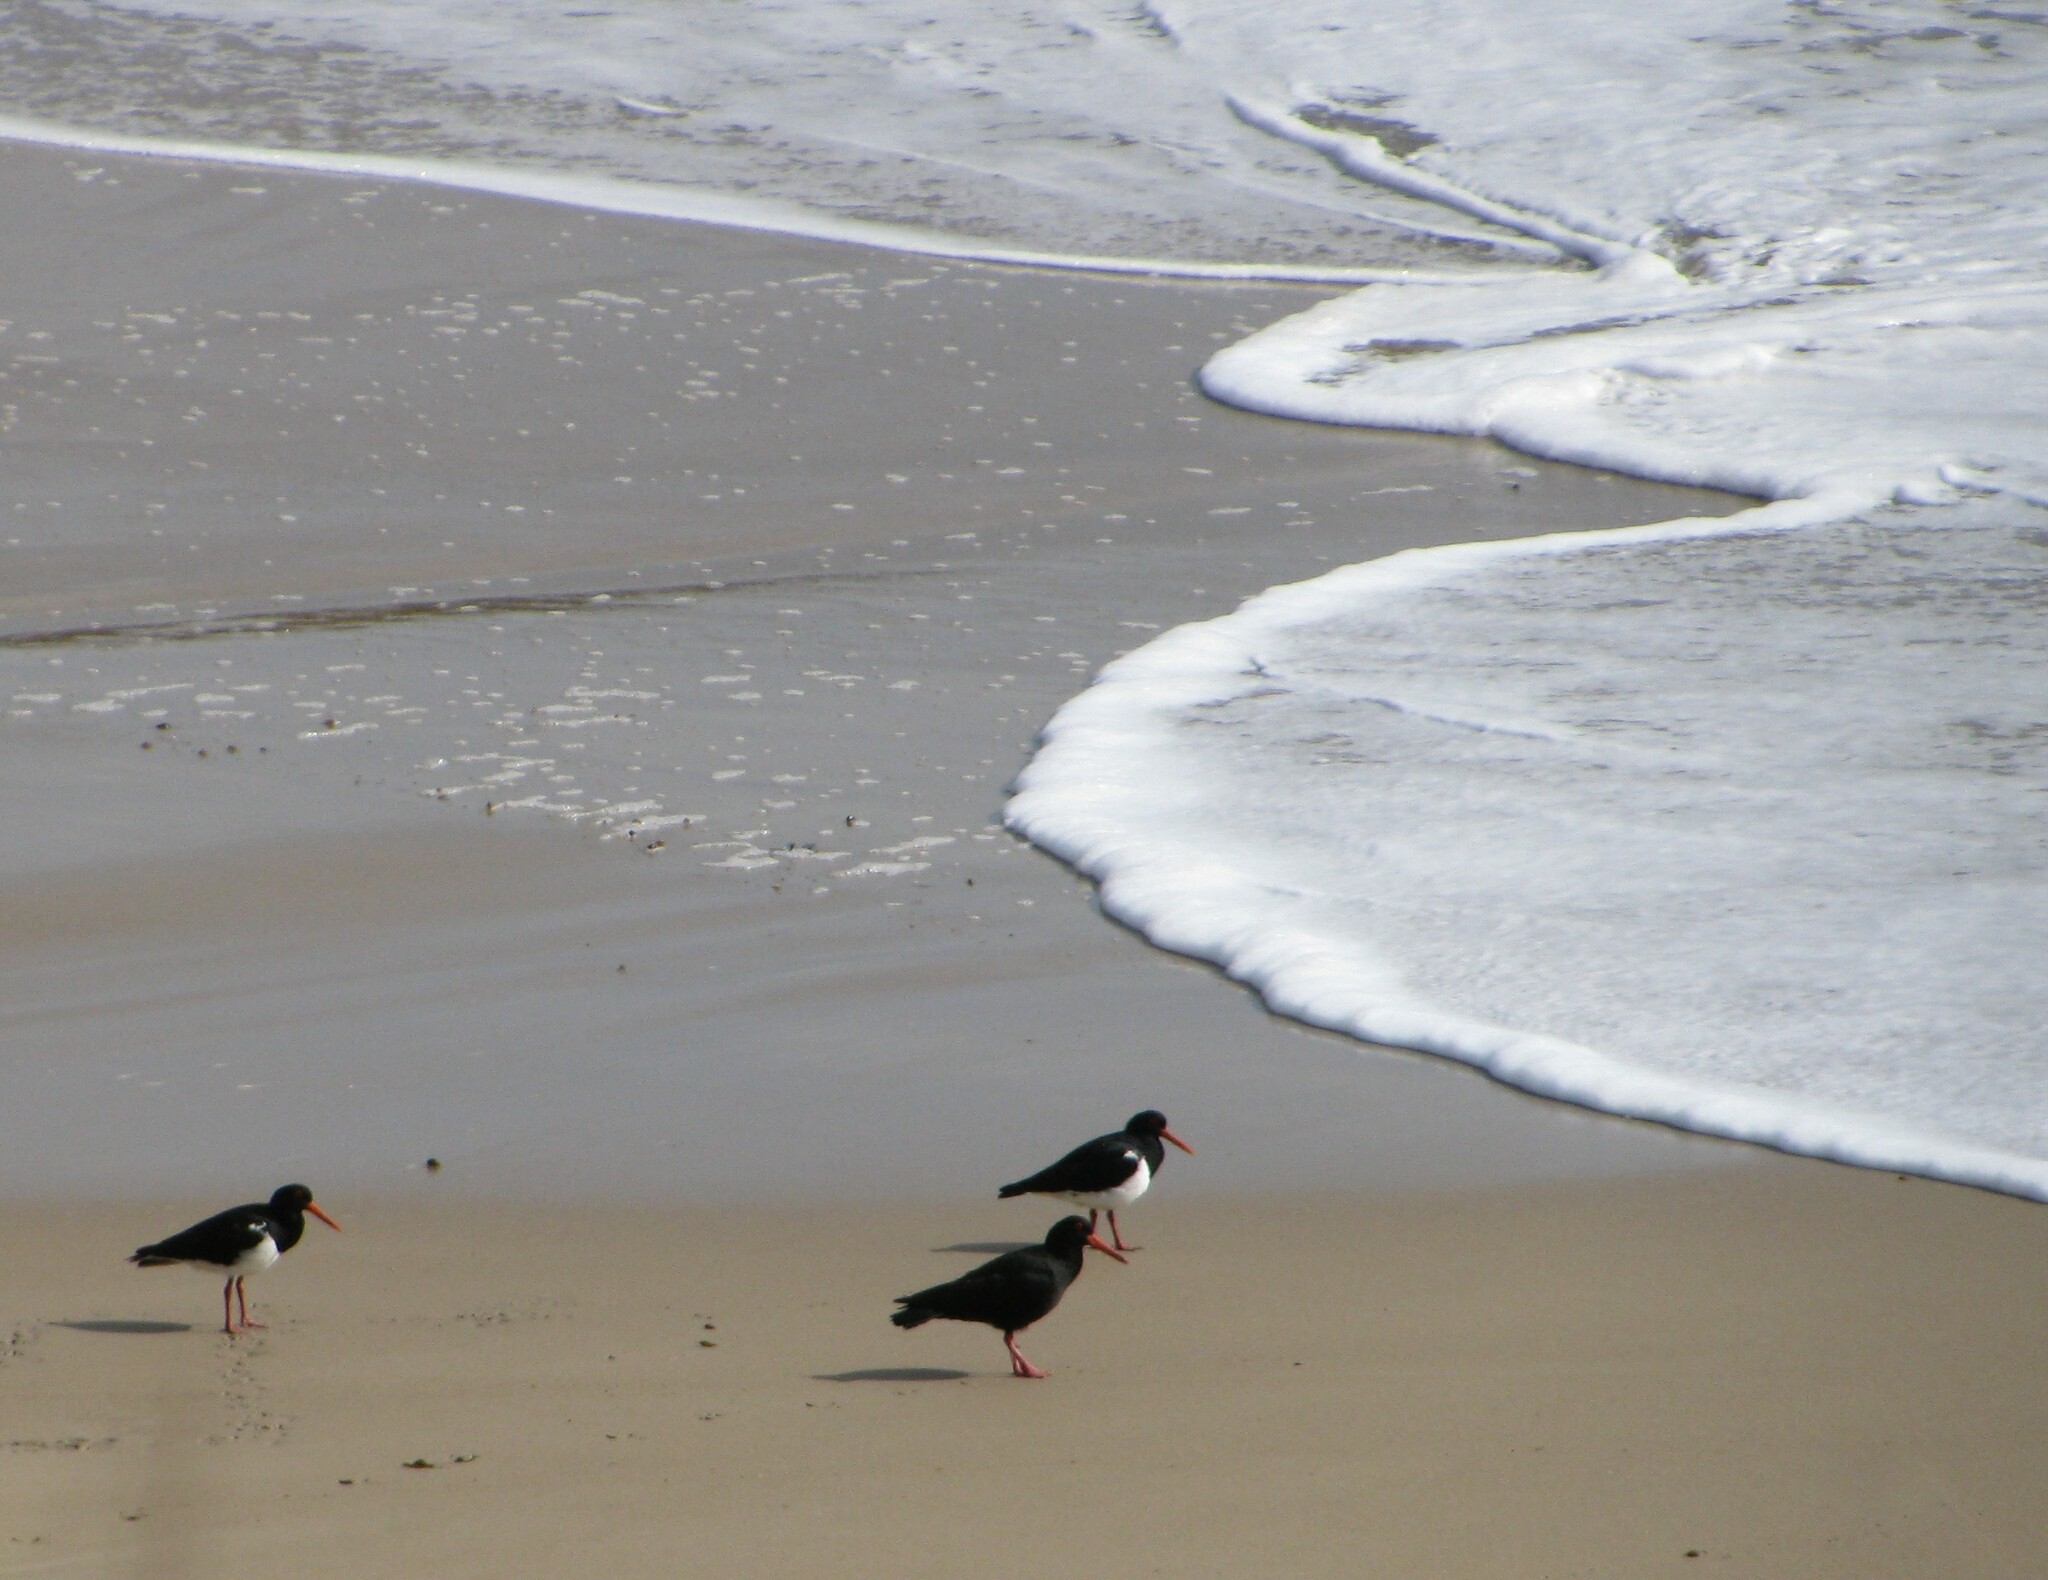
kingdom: Animalia
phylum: Chordata
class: Aves
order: Charadriiformes
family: Haematopodidae
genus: Haematopus
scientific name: Haematopus fuliginosus
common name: Sooty oystercatcher
